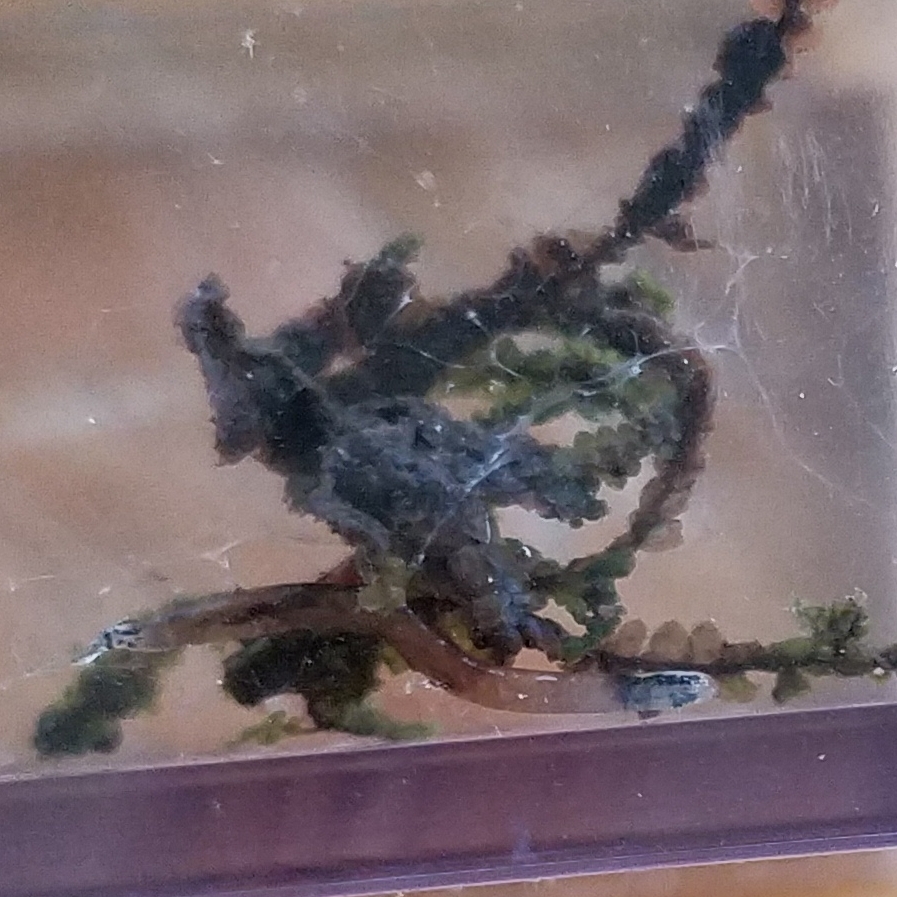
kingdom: Animalia
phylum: Arthropoda
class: Insecta
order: Diptera
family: Keroplatidae
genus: Orfelia
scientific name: Orfelia fultoni
